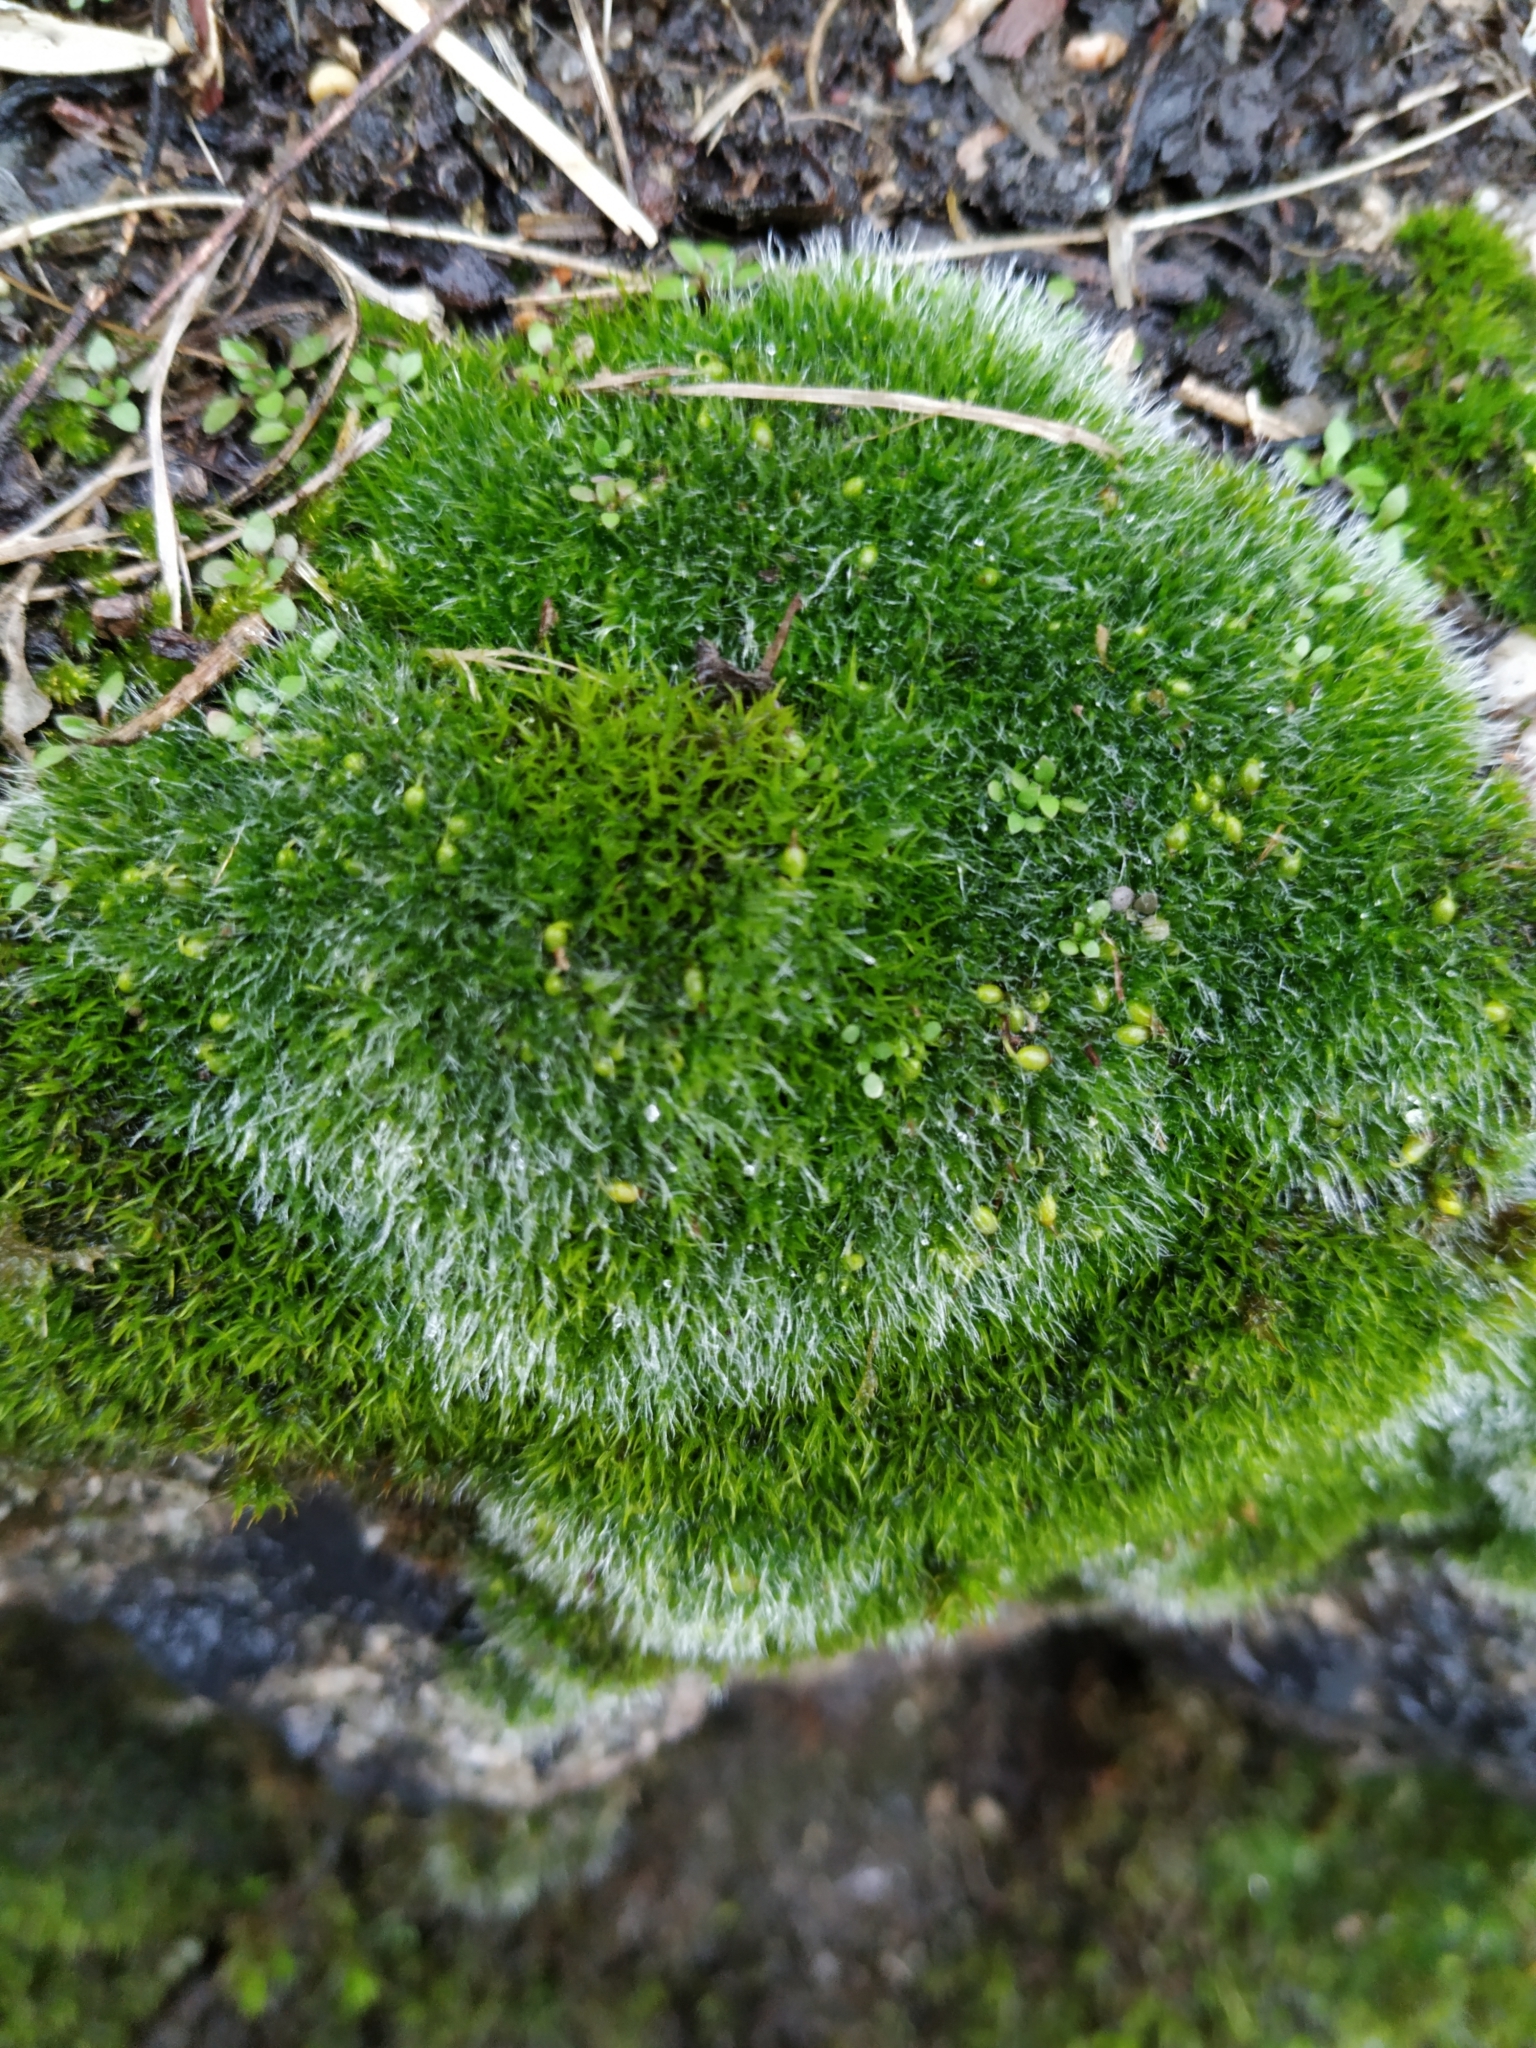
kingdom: Plantae
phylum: Bryophyta
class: Bryopsida
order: Grimmiales
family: Grimmiaceae
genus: Grimmia
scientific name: Grimmia pulvinata
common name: Grey-cushioned grimmia
